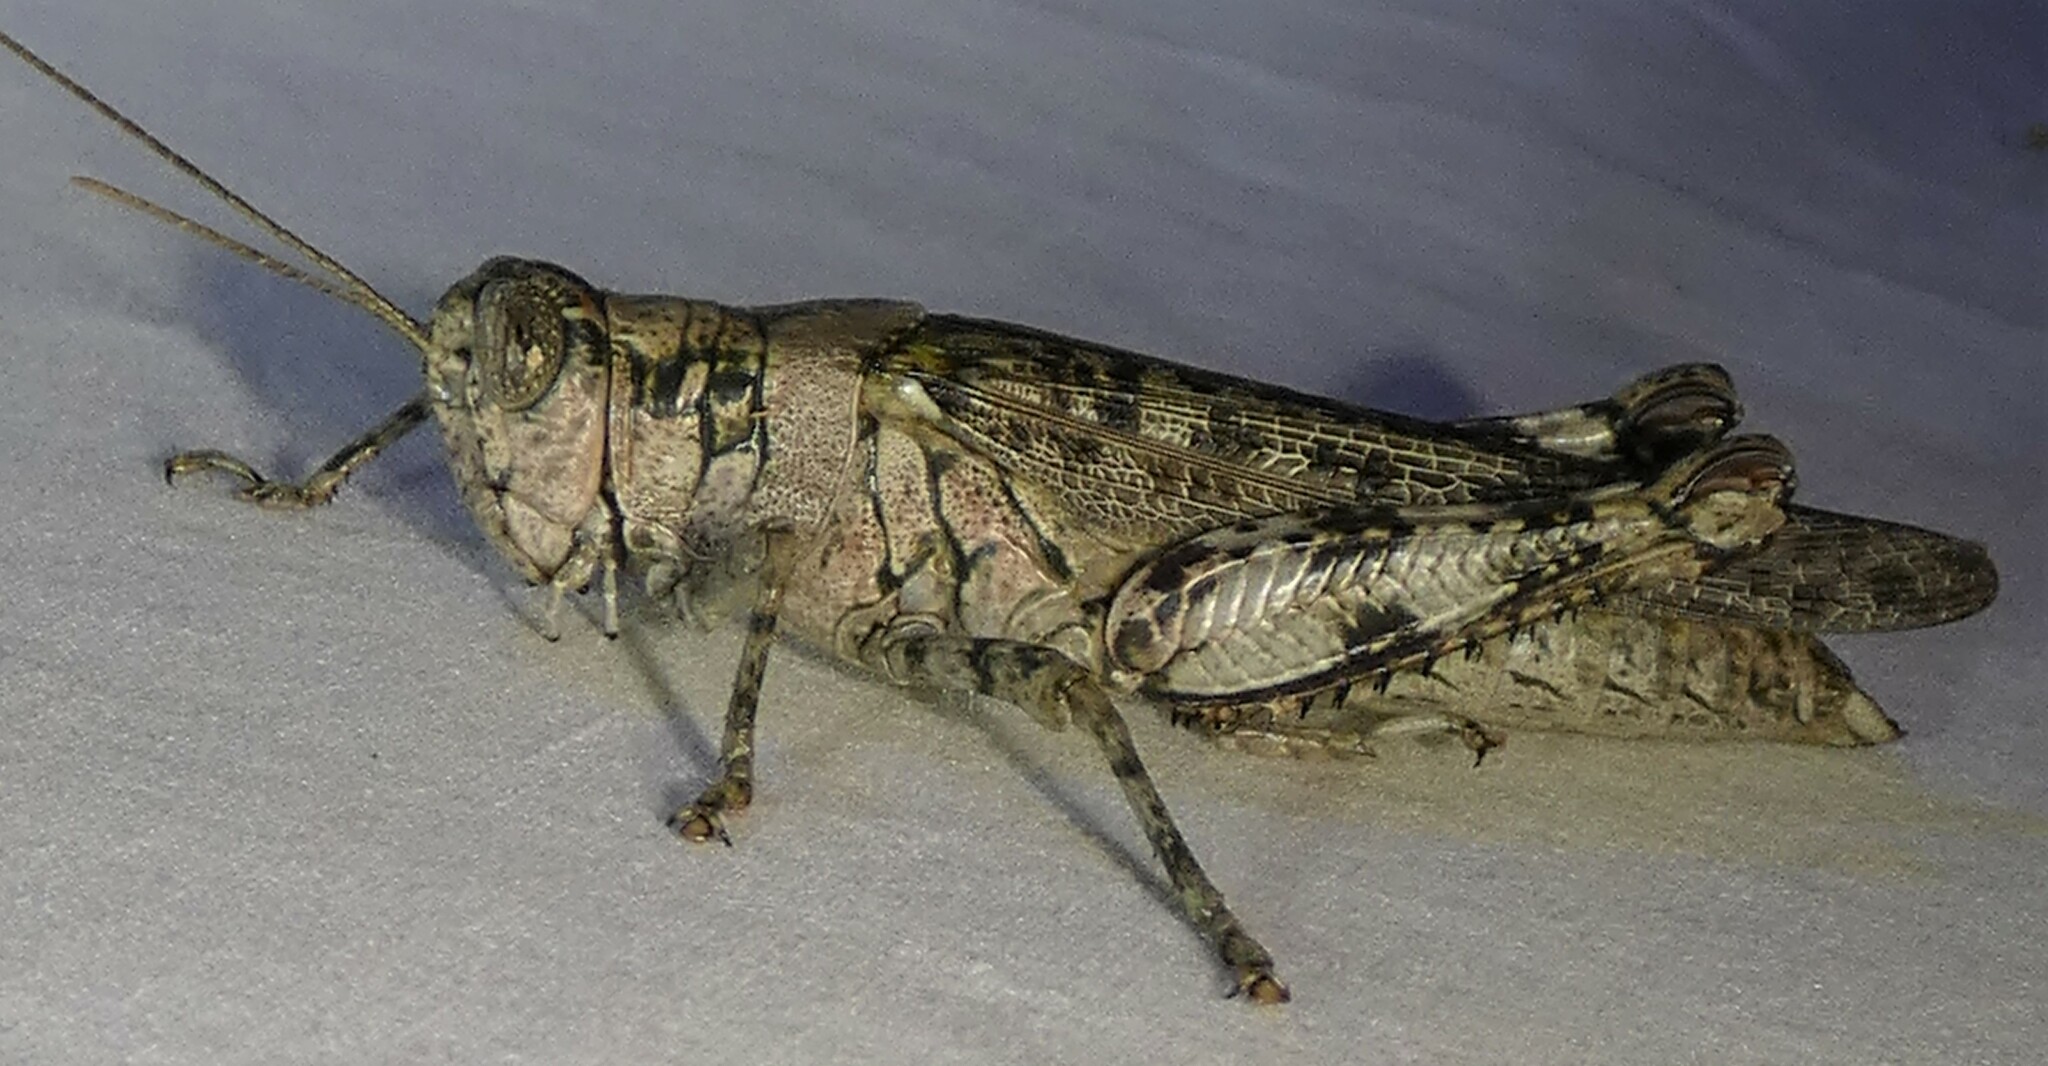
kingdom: Animalia
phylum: Arthropoda
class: Insecta
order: Orthoptera
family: Acrididae
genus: Melanoplus
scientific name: Melanoplus punctulatus
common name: Pine-tree spur-throat grasshopper
